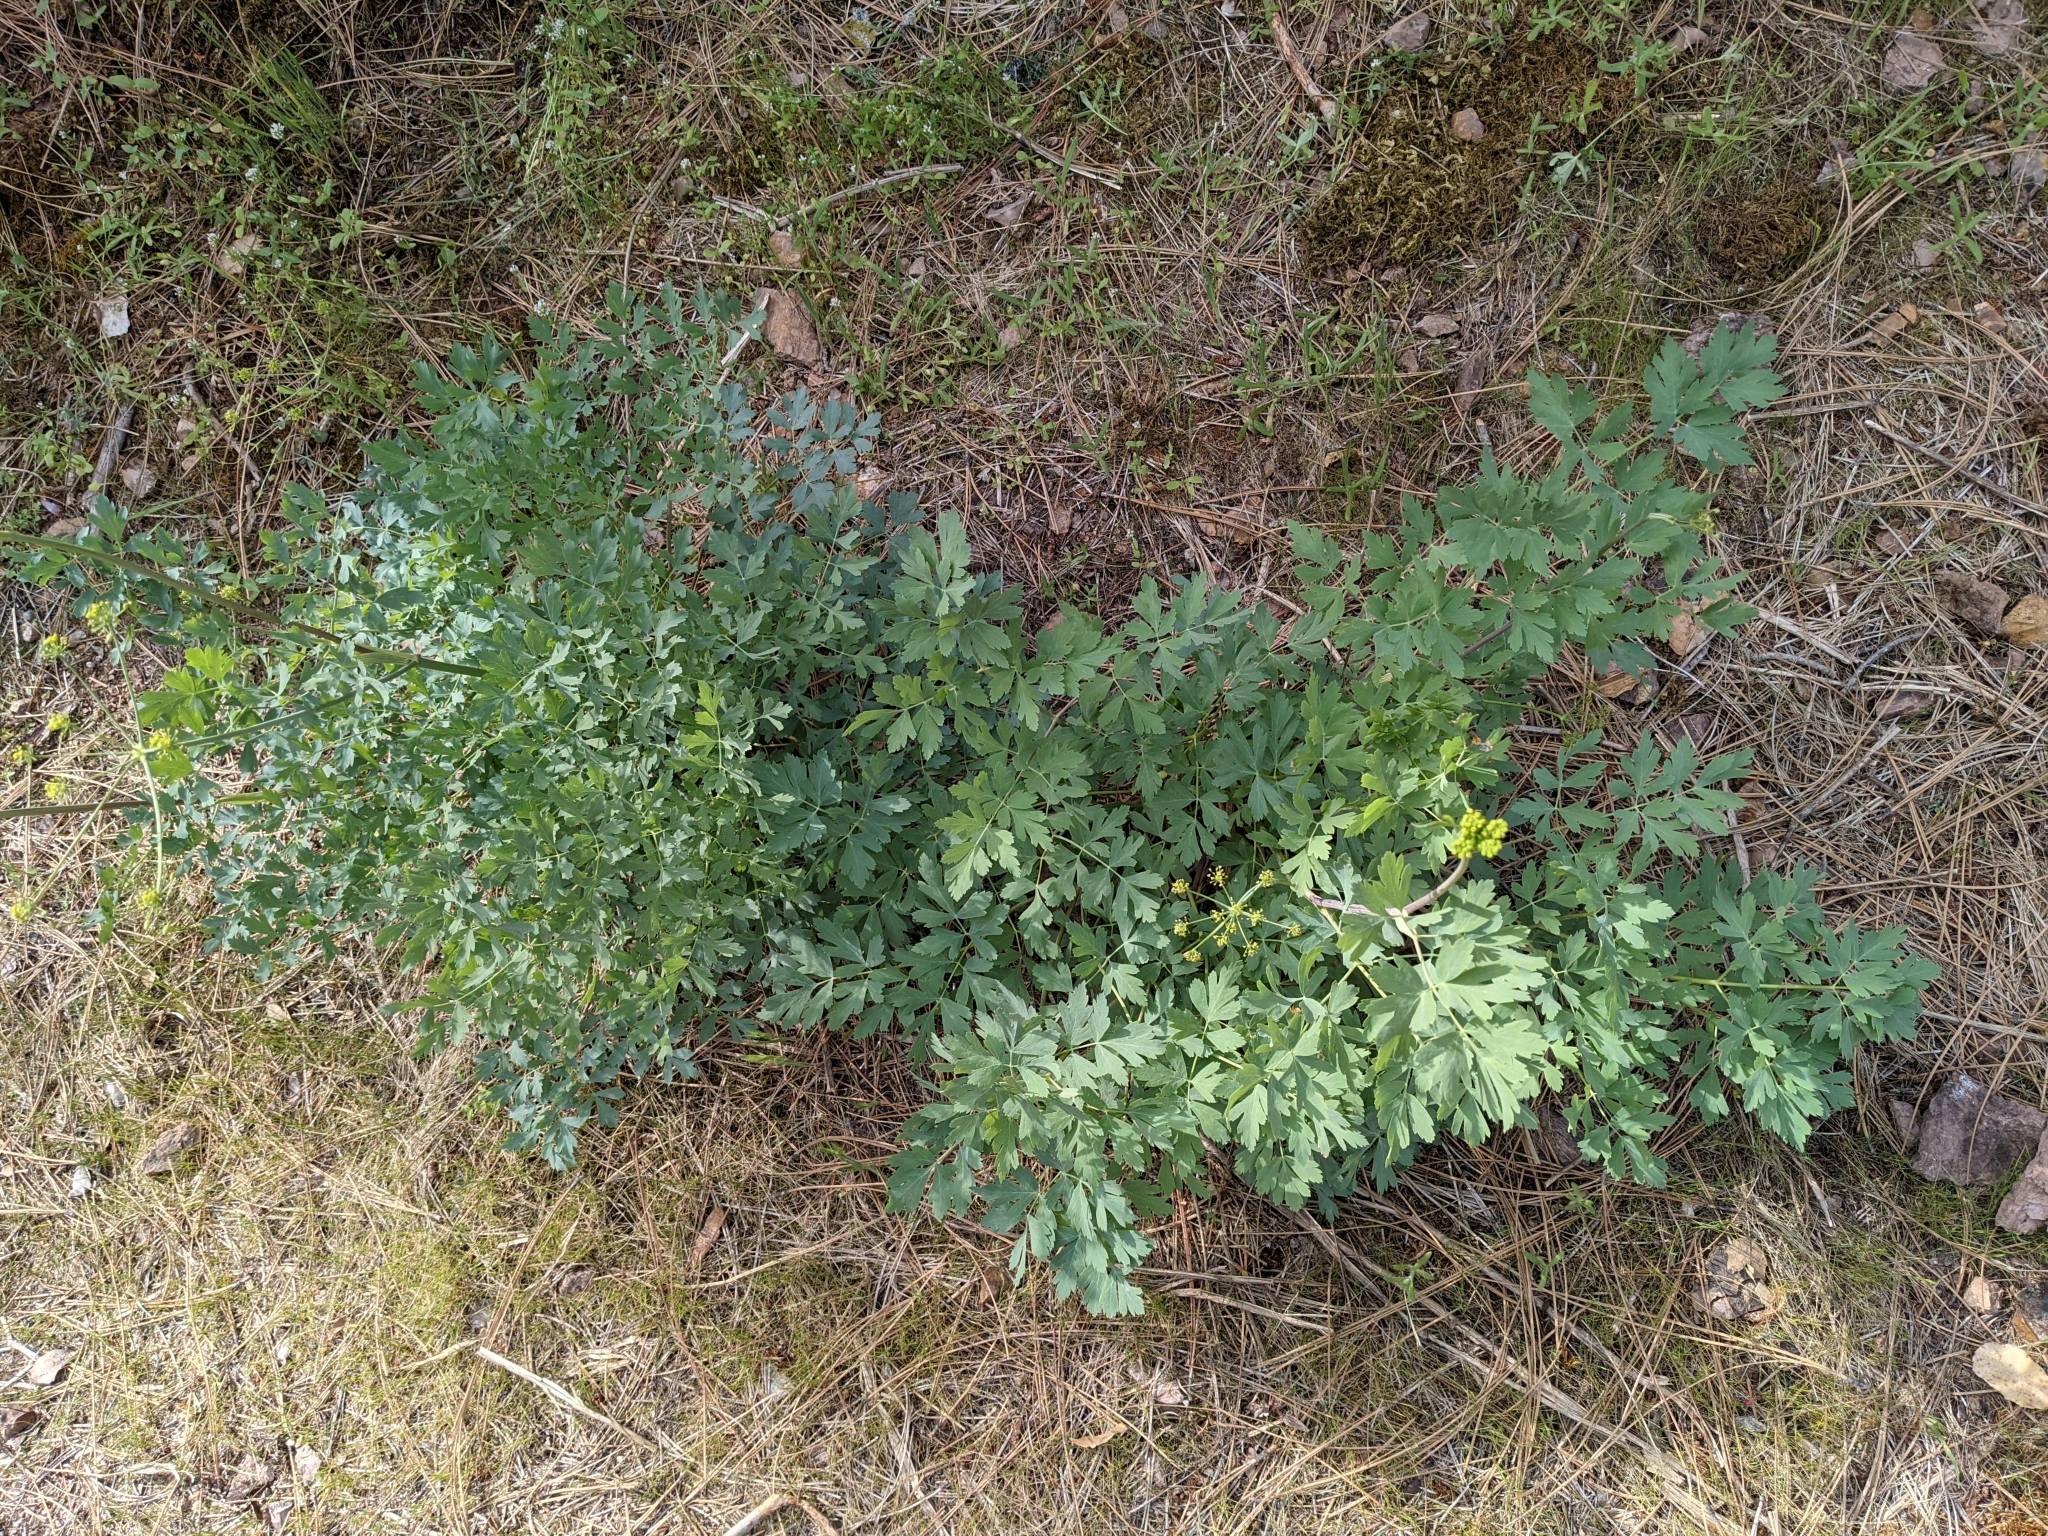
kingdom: Plantae
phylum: Tracheophyta
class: Magnoliopsida
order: Apiales
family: Apiaceae
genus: Lomatium
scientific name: Lomatium californicum
